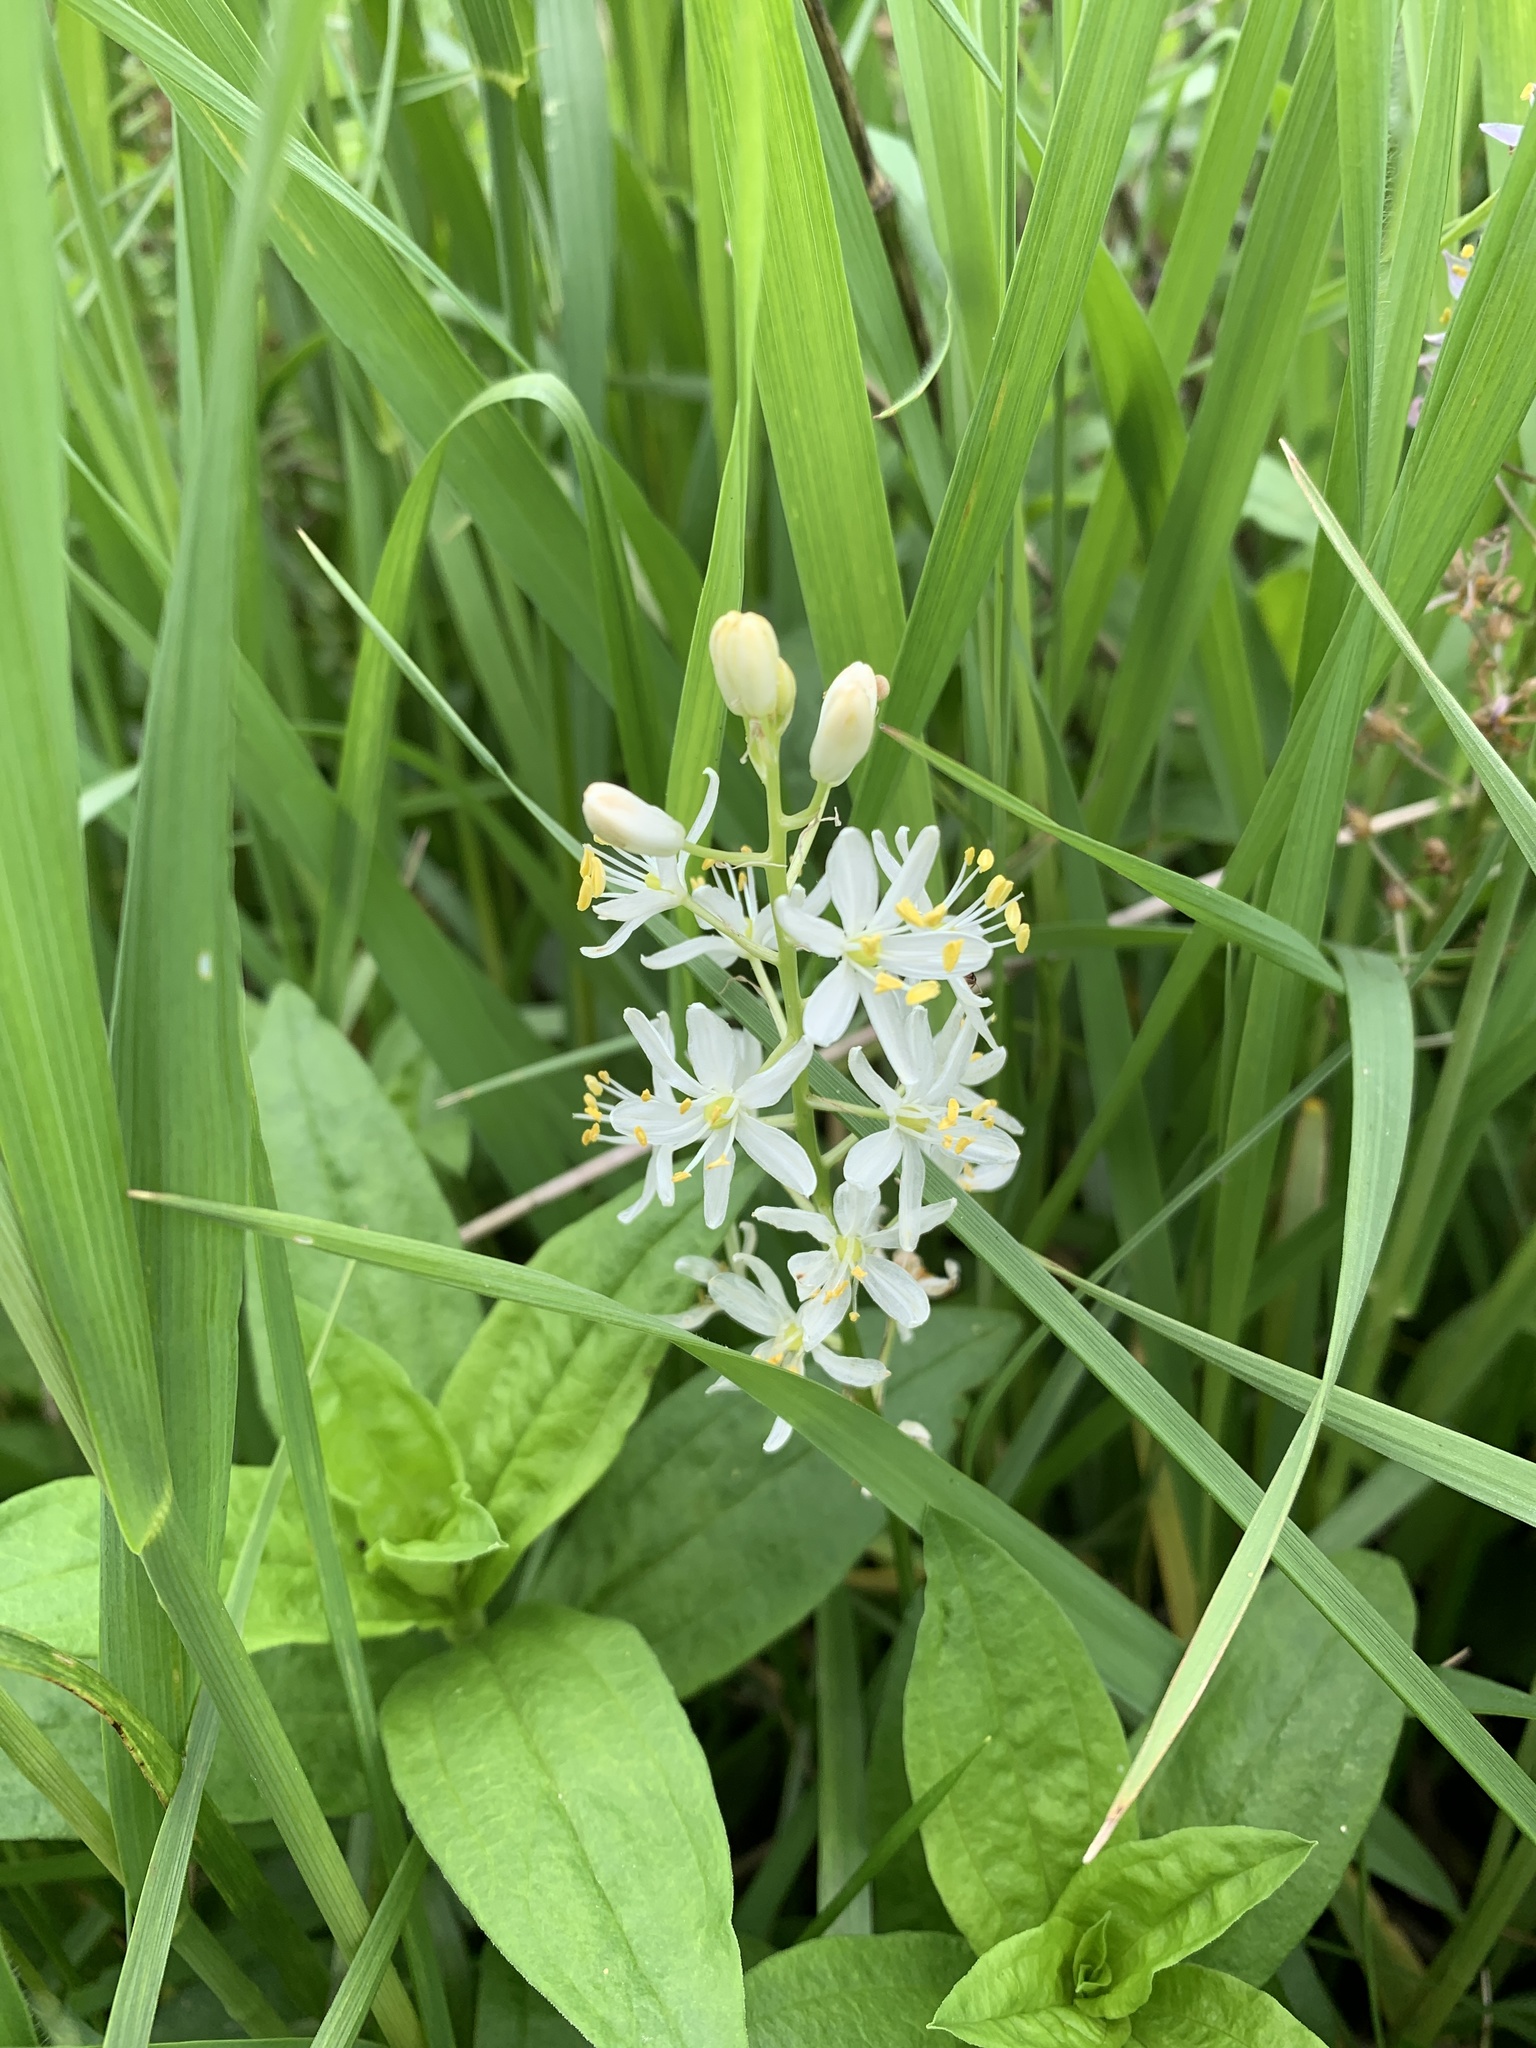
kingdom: Plantae
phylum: Tracheophyta
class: Liliopsida
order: Asparagales
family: Asparagaceae
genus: Camassia
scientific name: Camassia scilloides
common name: Wild hyacinth
